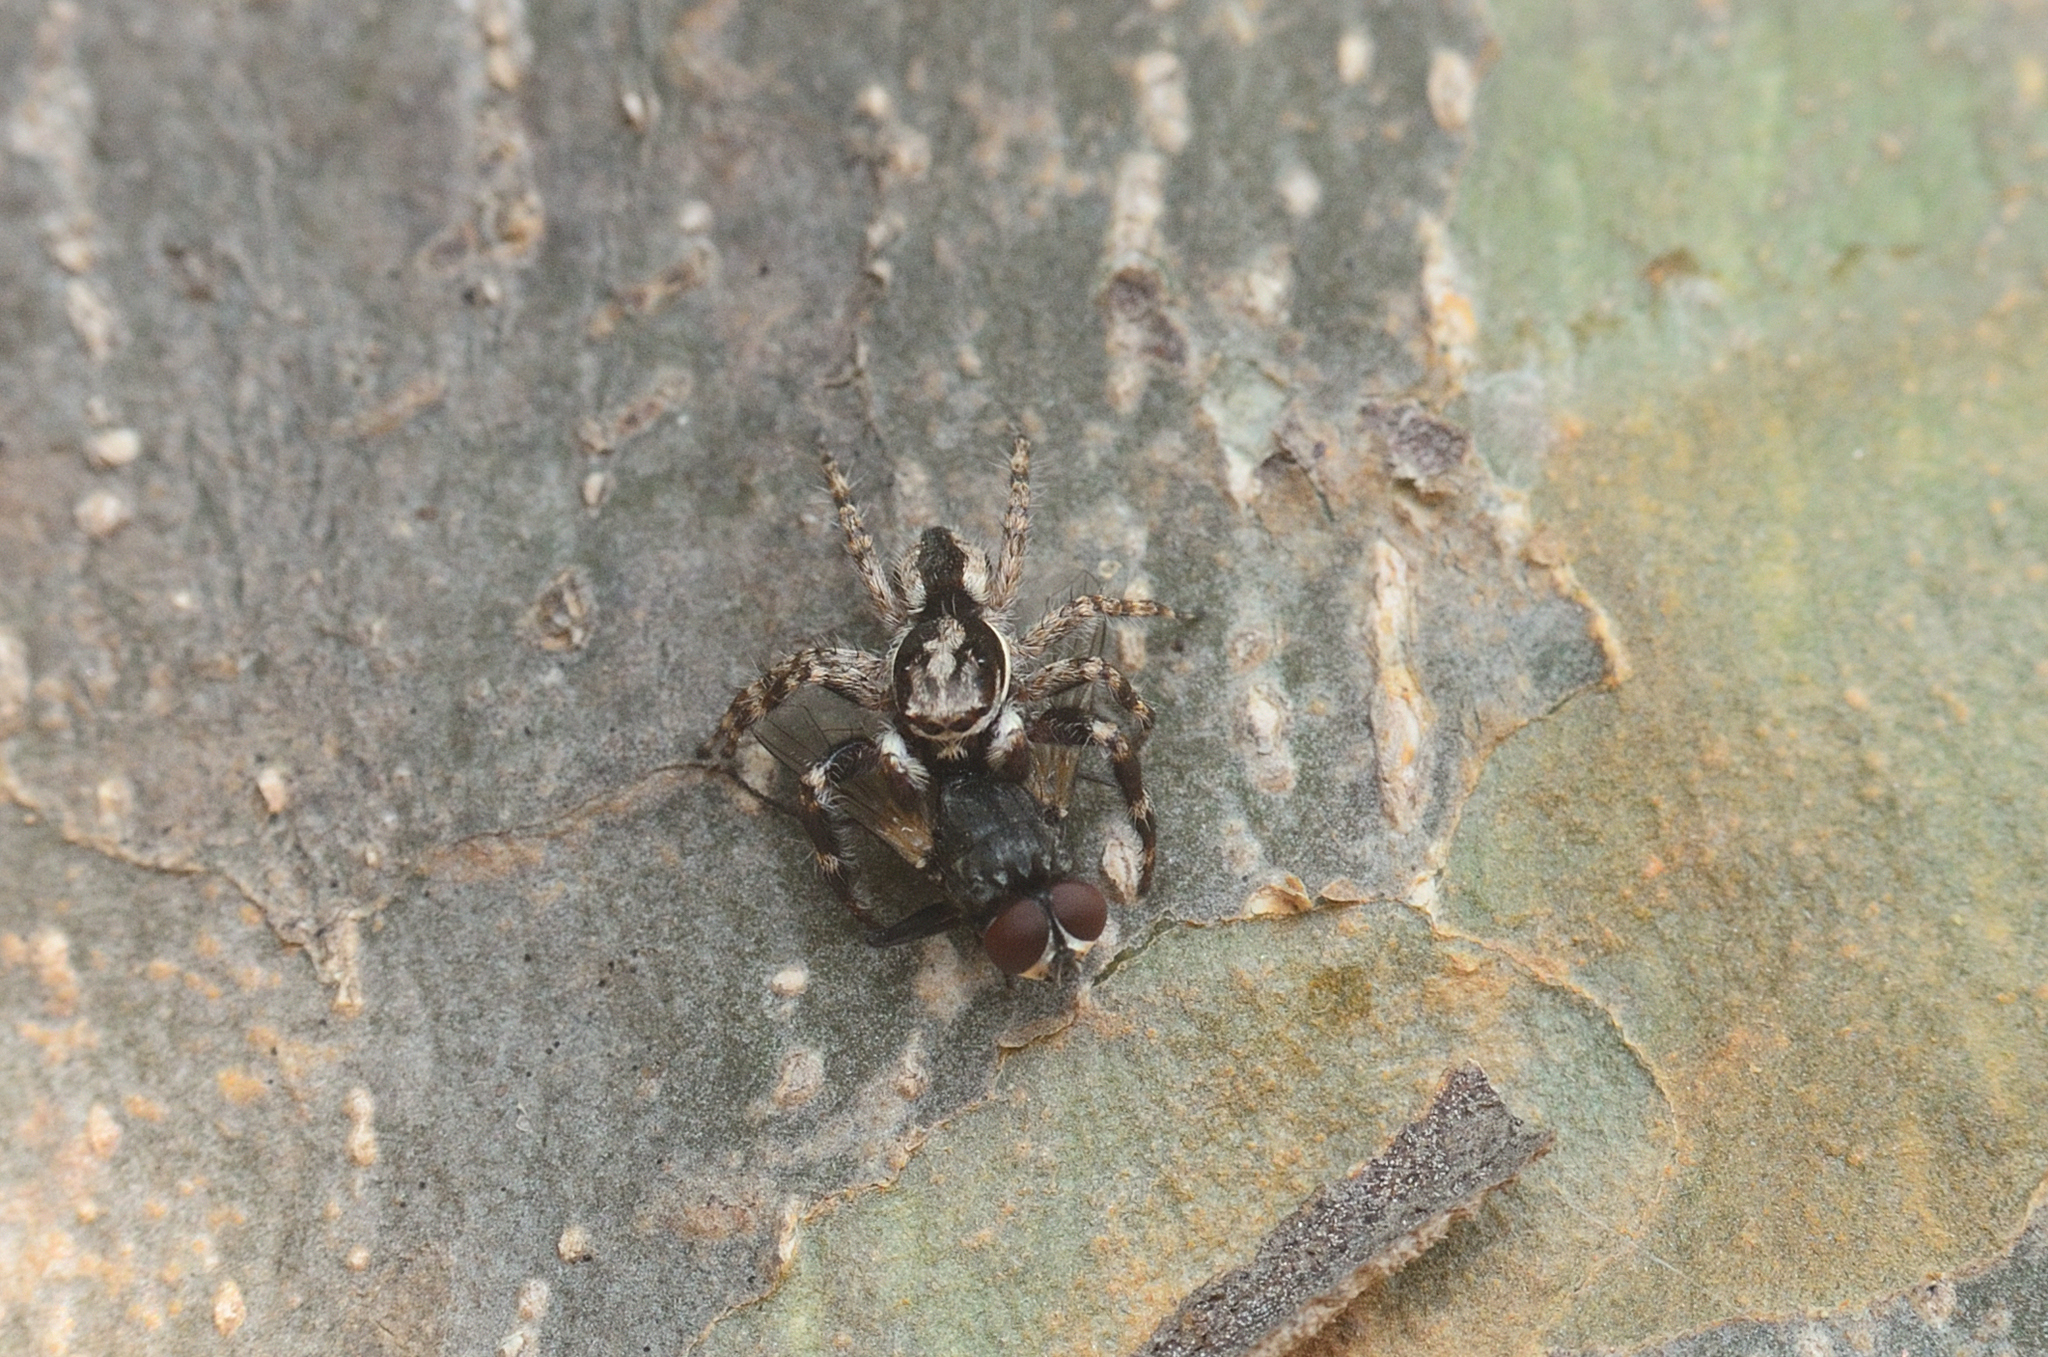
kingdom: Animalia
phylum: Arthropoda
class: Arachnida
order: Araneae
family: Salticidae
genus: Menemerus
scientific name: Menemerus bivittatus
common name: Gray wall jumper
